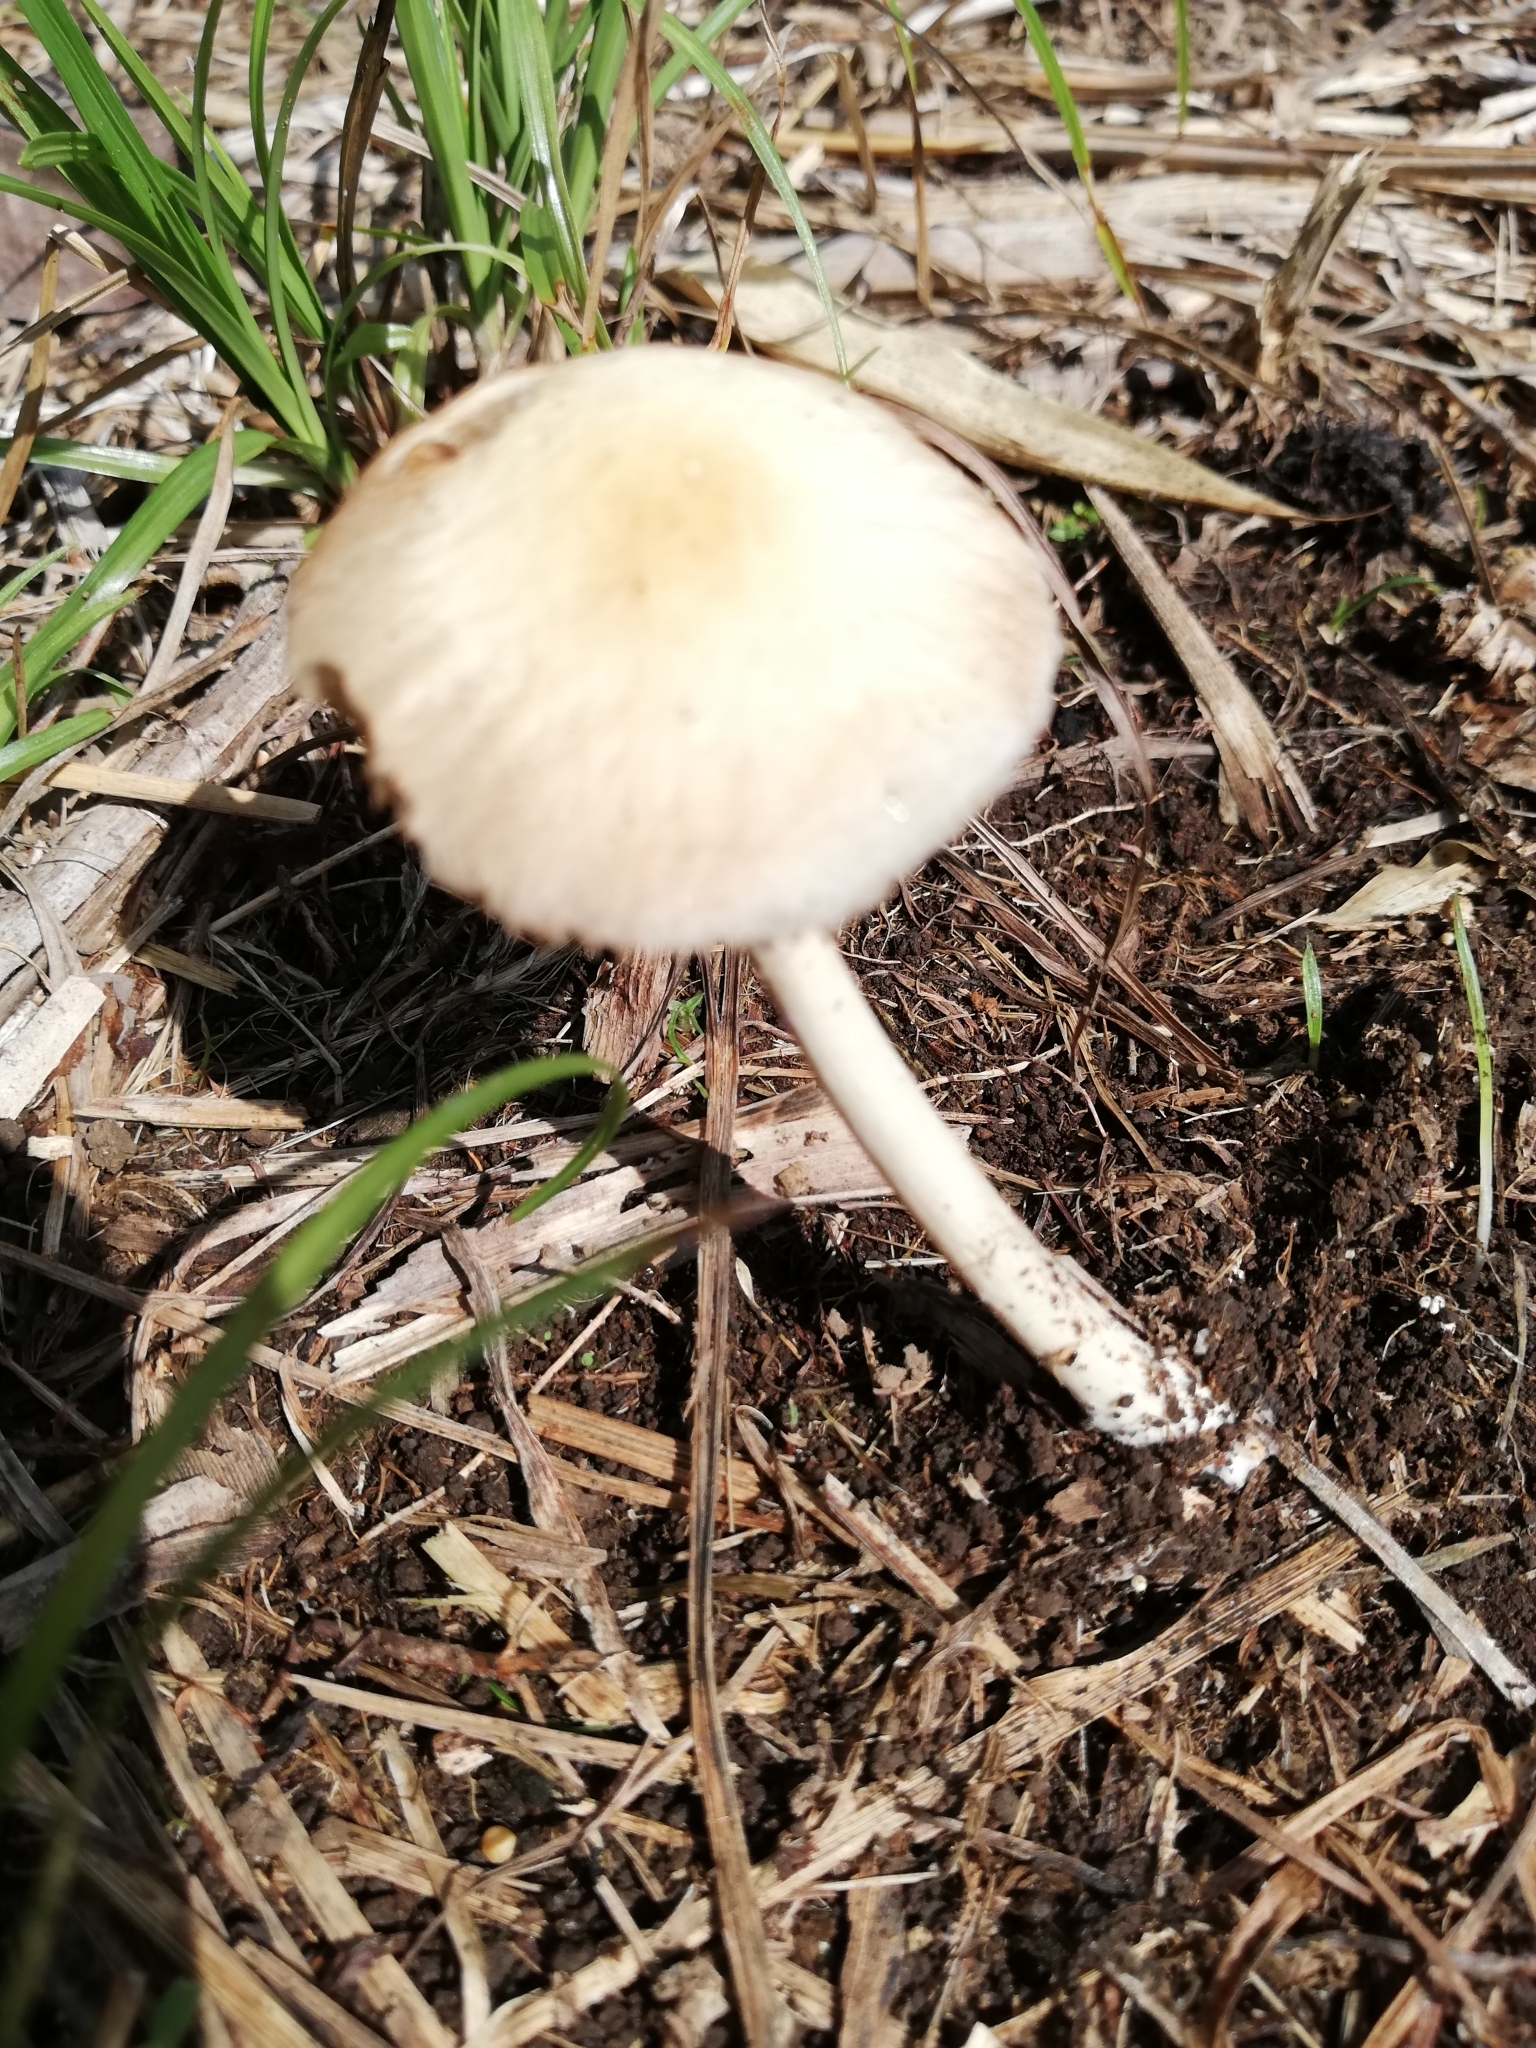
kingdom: Fungi
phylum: Basidiomycota
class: Agaricomycetes
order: Agaricales
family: Strophariaceae
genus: Agrocybe
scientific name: Agrocybe retigera
